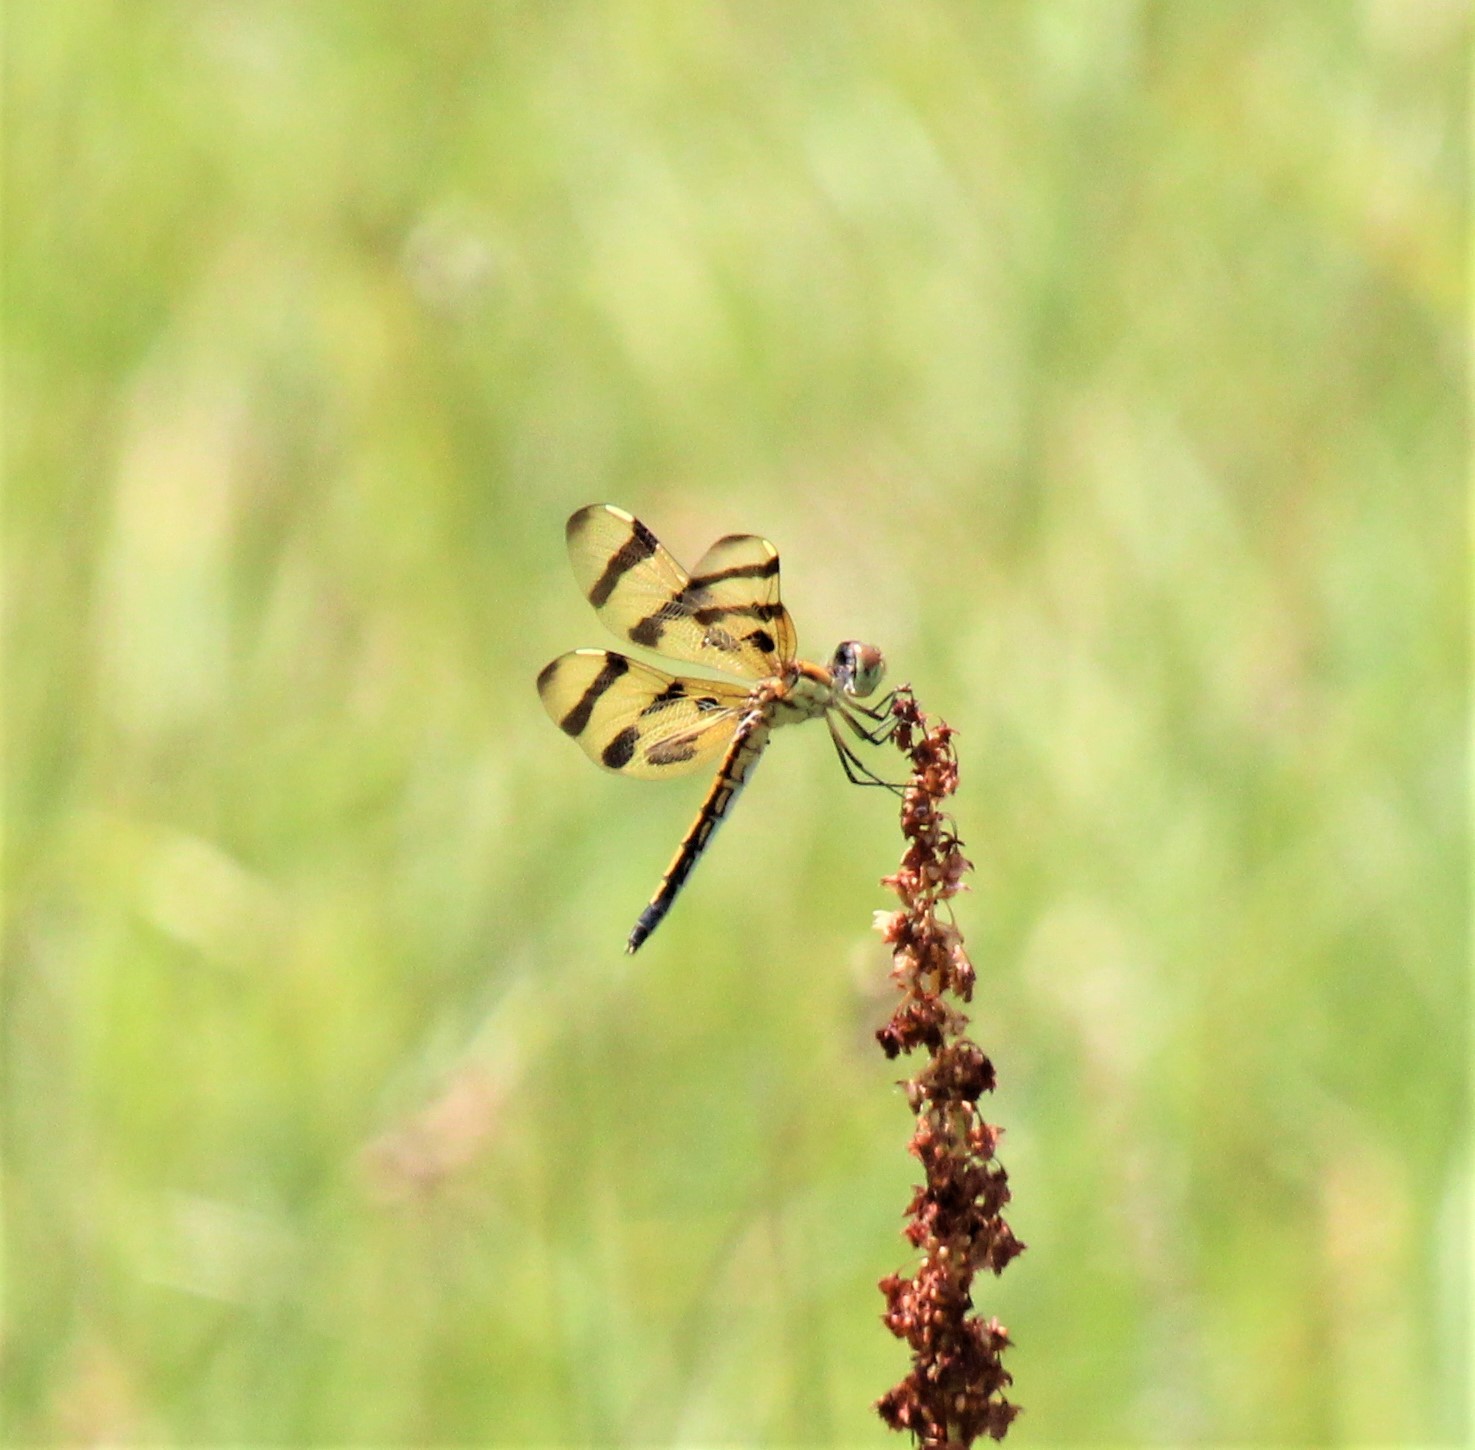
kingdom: Animalia
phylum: Arthropoda
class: Insecta
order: Odonata
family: Libellulidae
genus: Celithemis
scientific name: Celithemis eponina
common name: Halloween pennant
